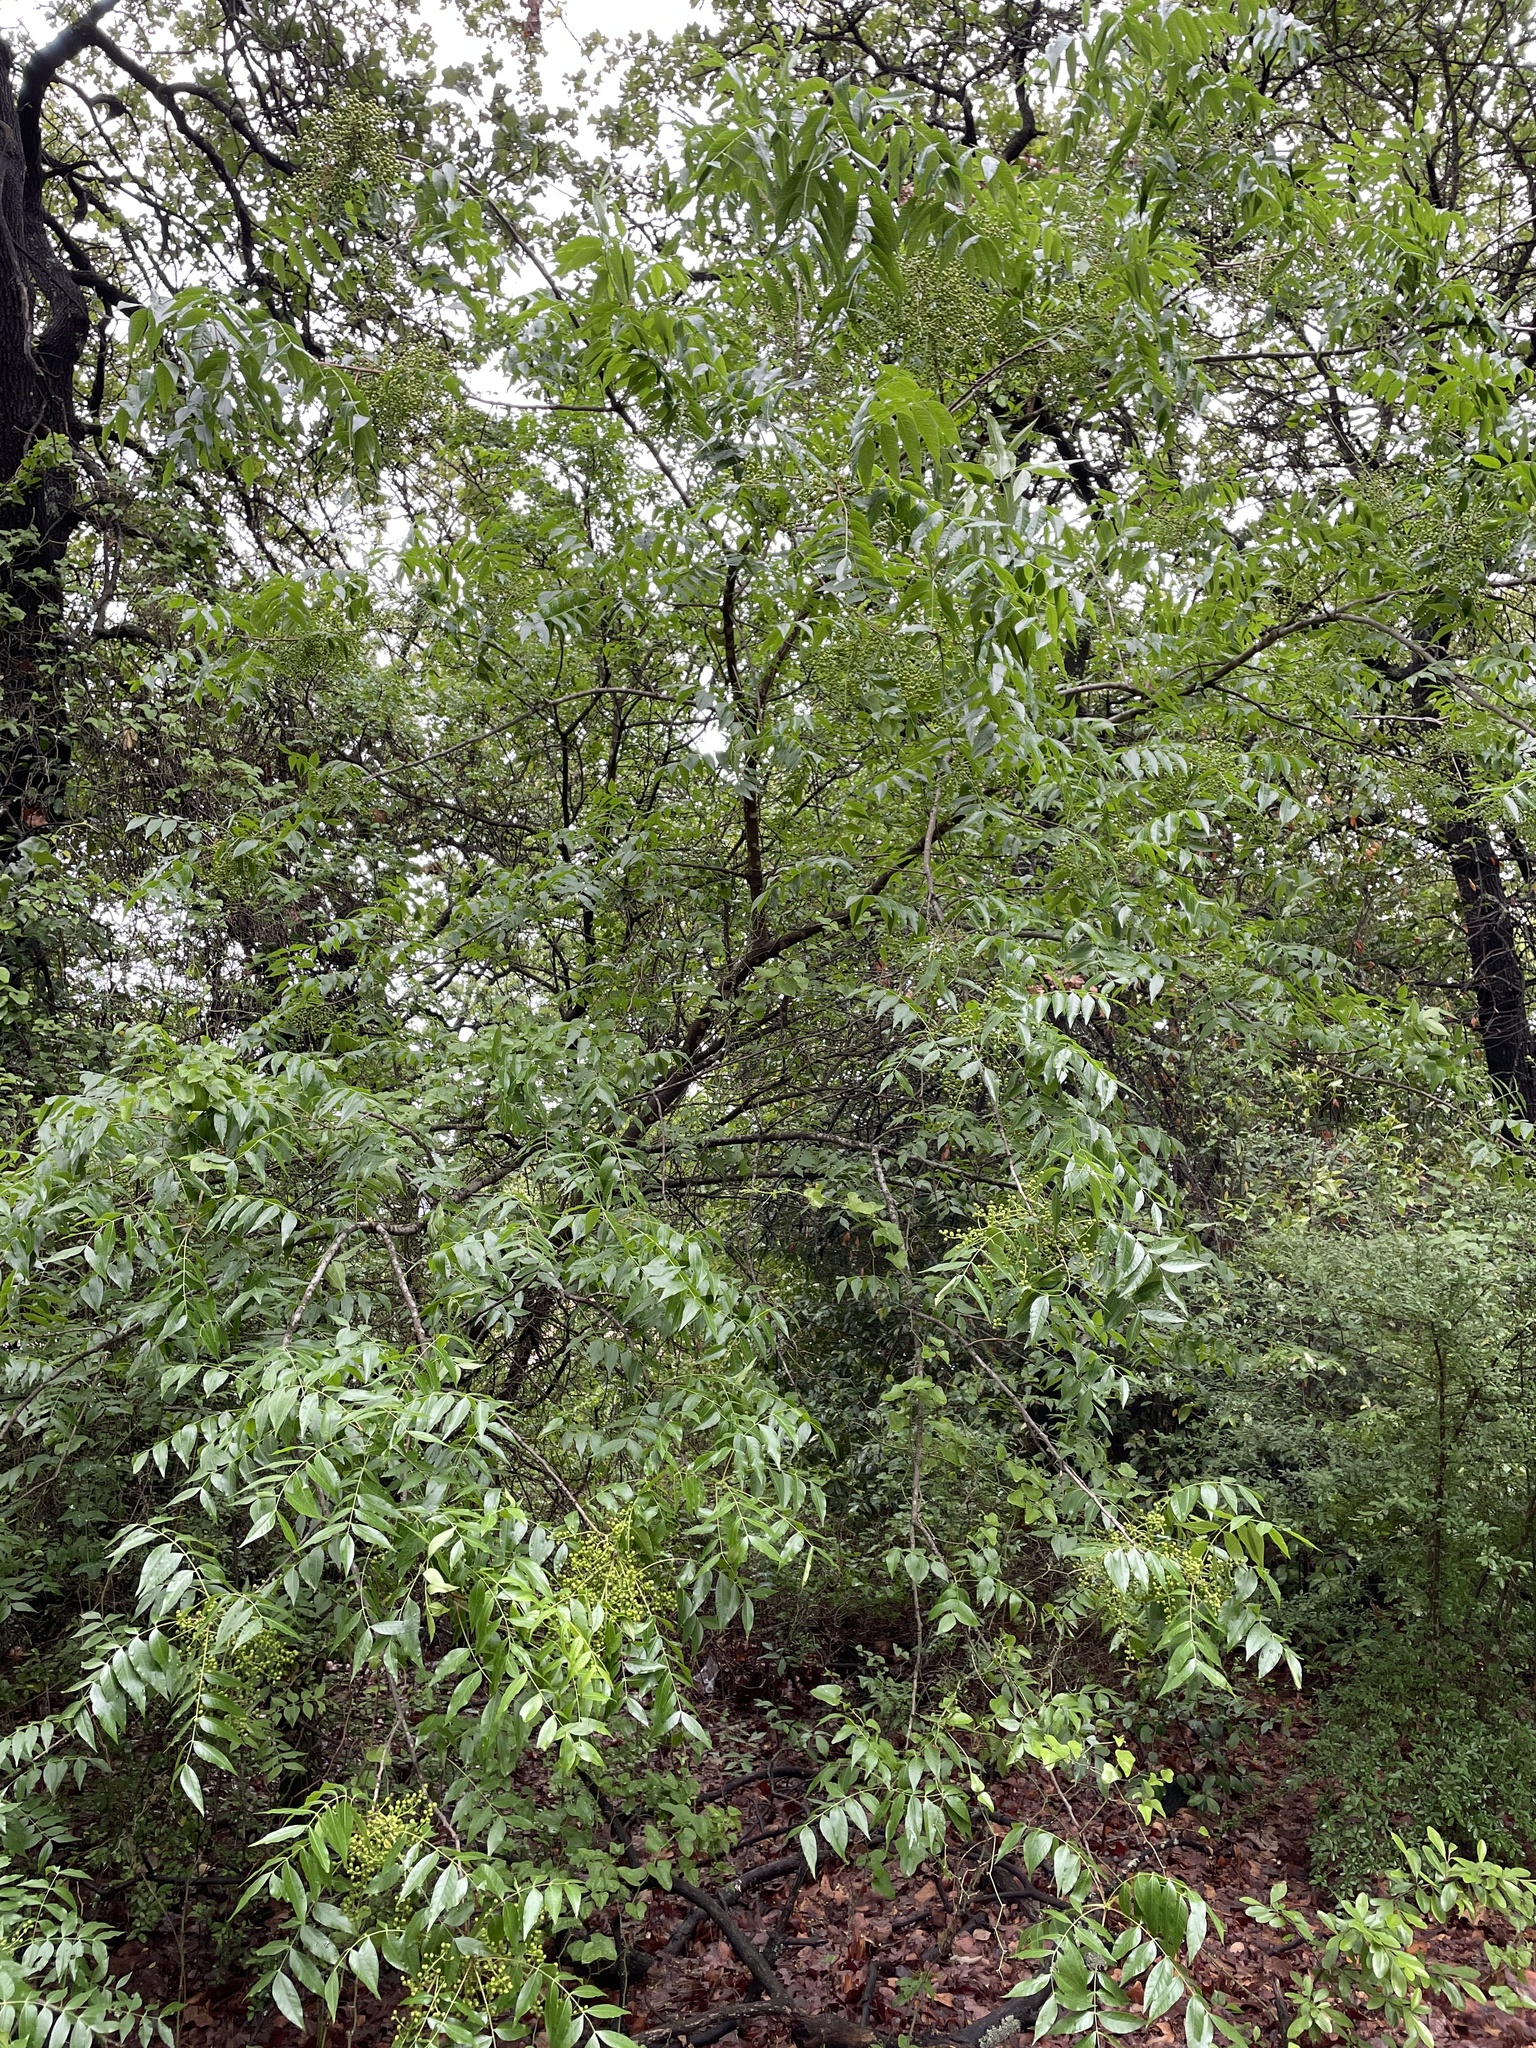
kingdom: Plantae
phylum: Tracheophyta
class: Magnoliopsida
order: Sapindales
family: Anacardiaceae
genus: Pistacia
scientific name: Pistacia chinensis
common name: Chinese pistache
